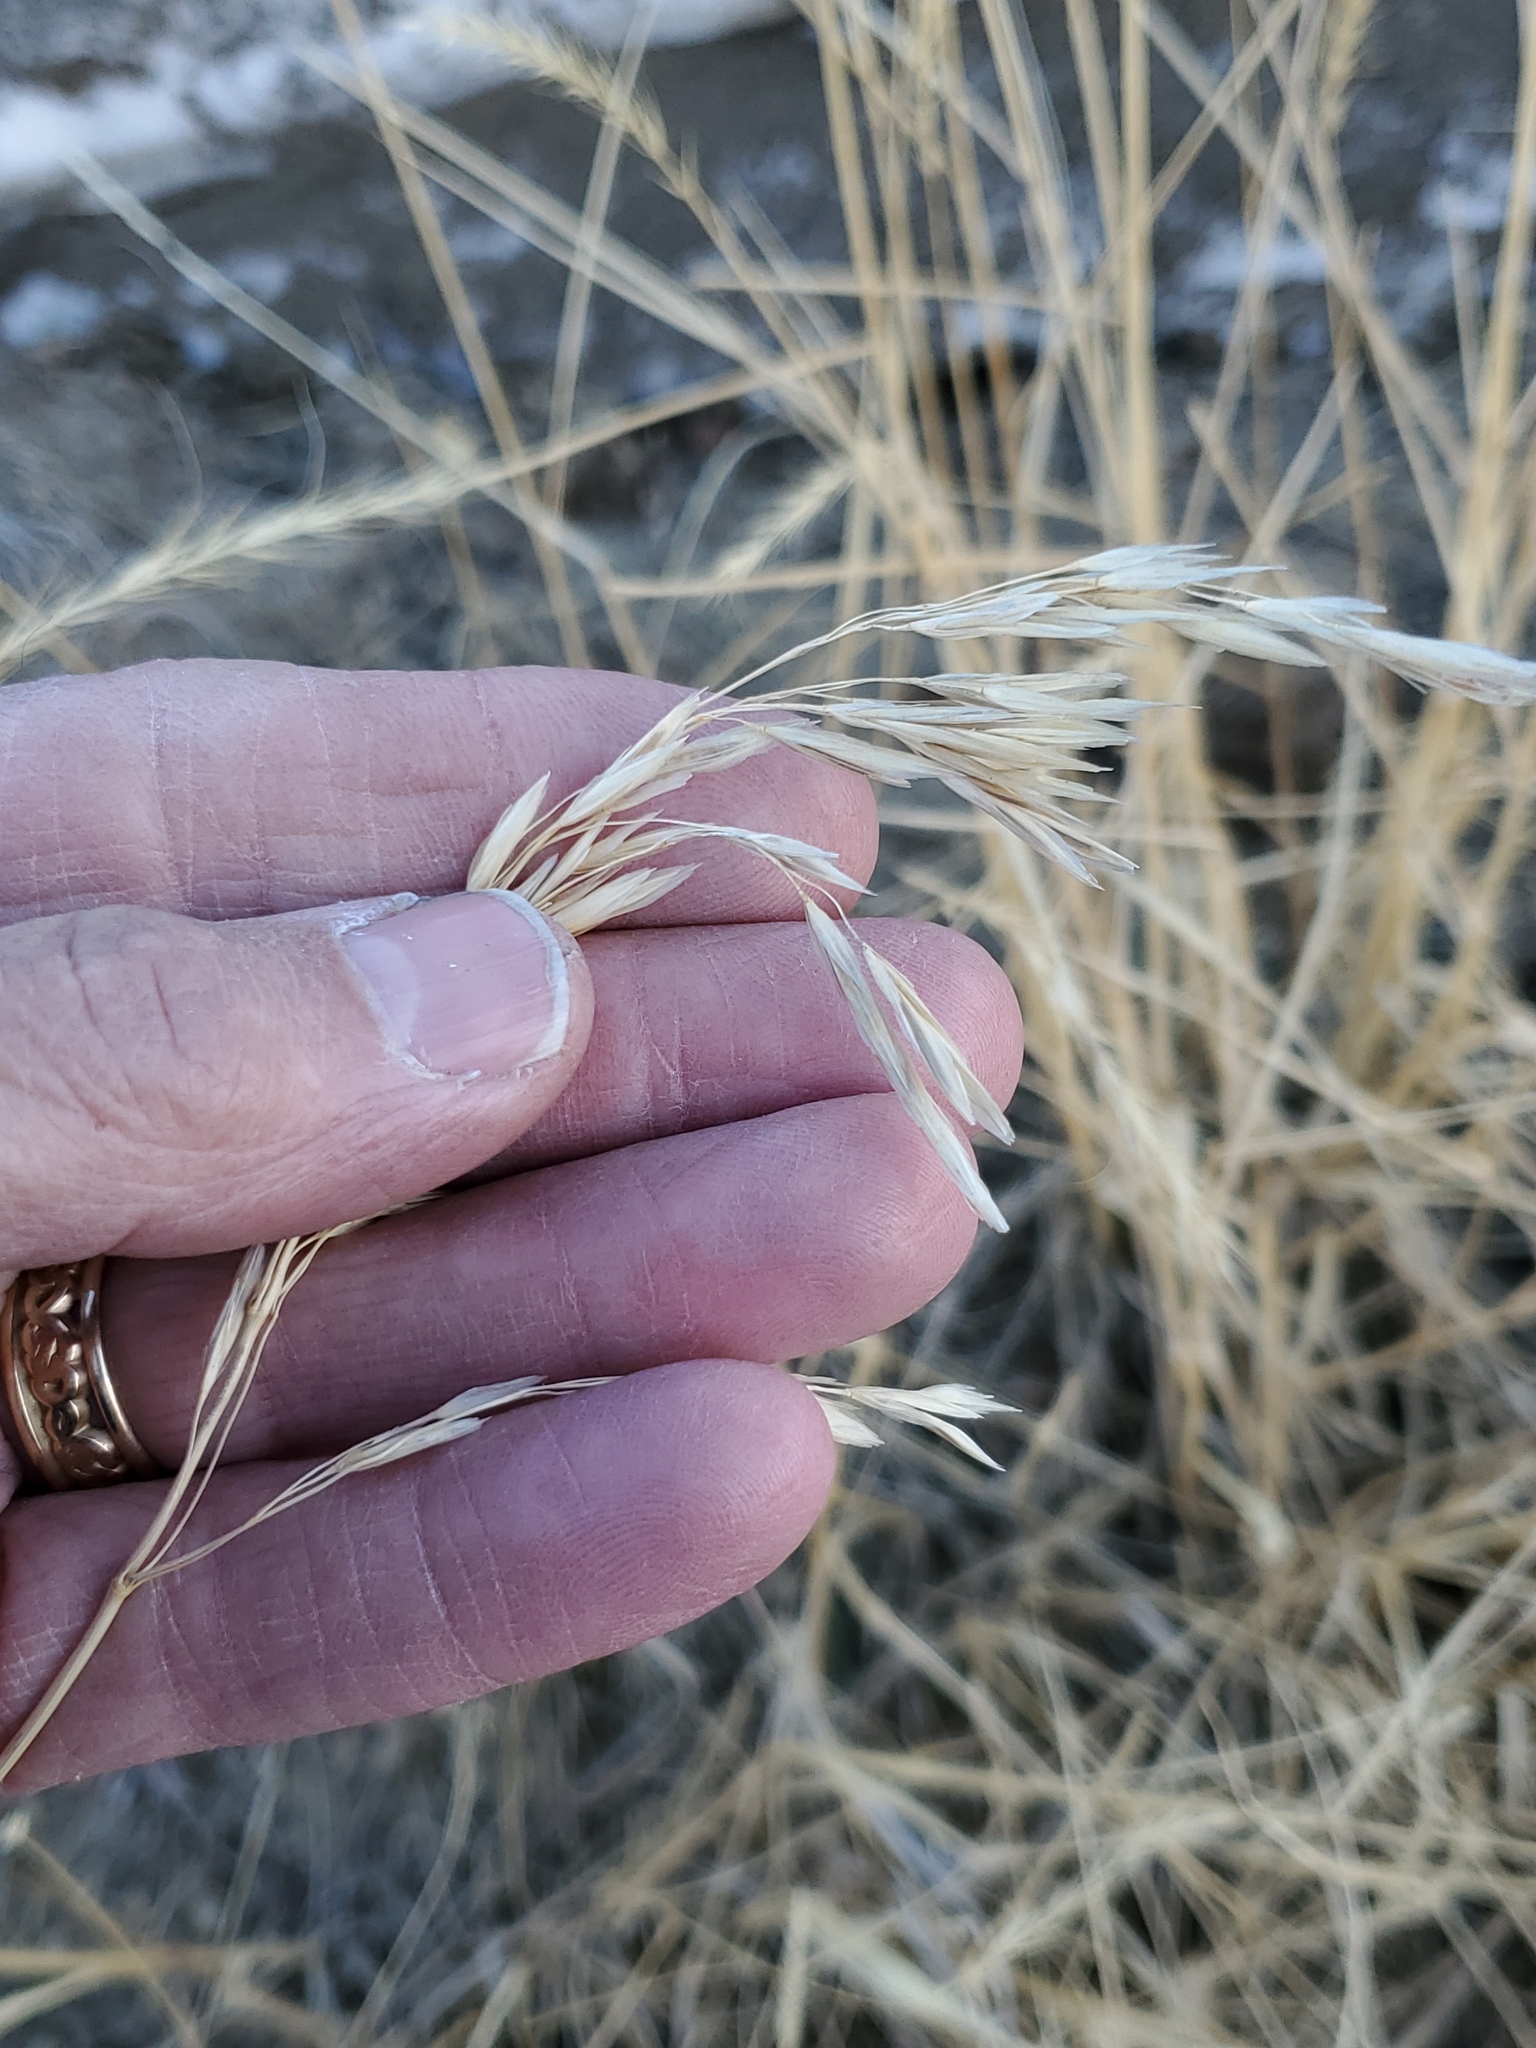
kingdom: Plantae
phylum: Tracheophyta
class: Liliopsida
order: Poales
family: Poaceae
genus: Bromus
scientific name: Bromus inermis
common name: Smooth brome
